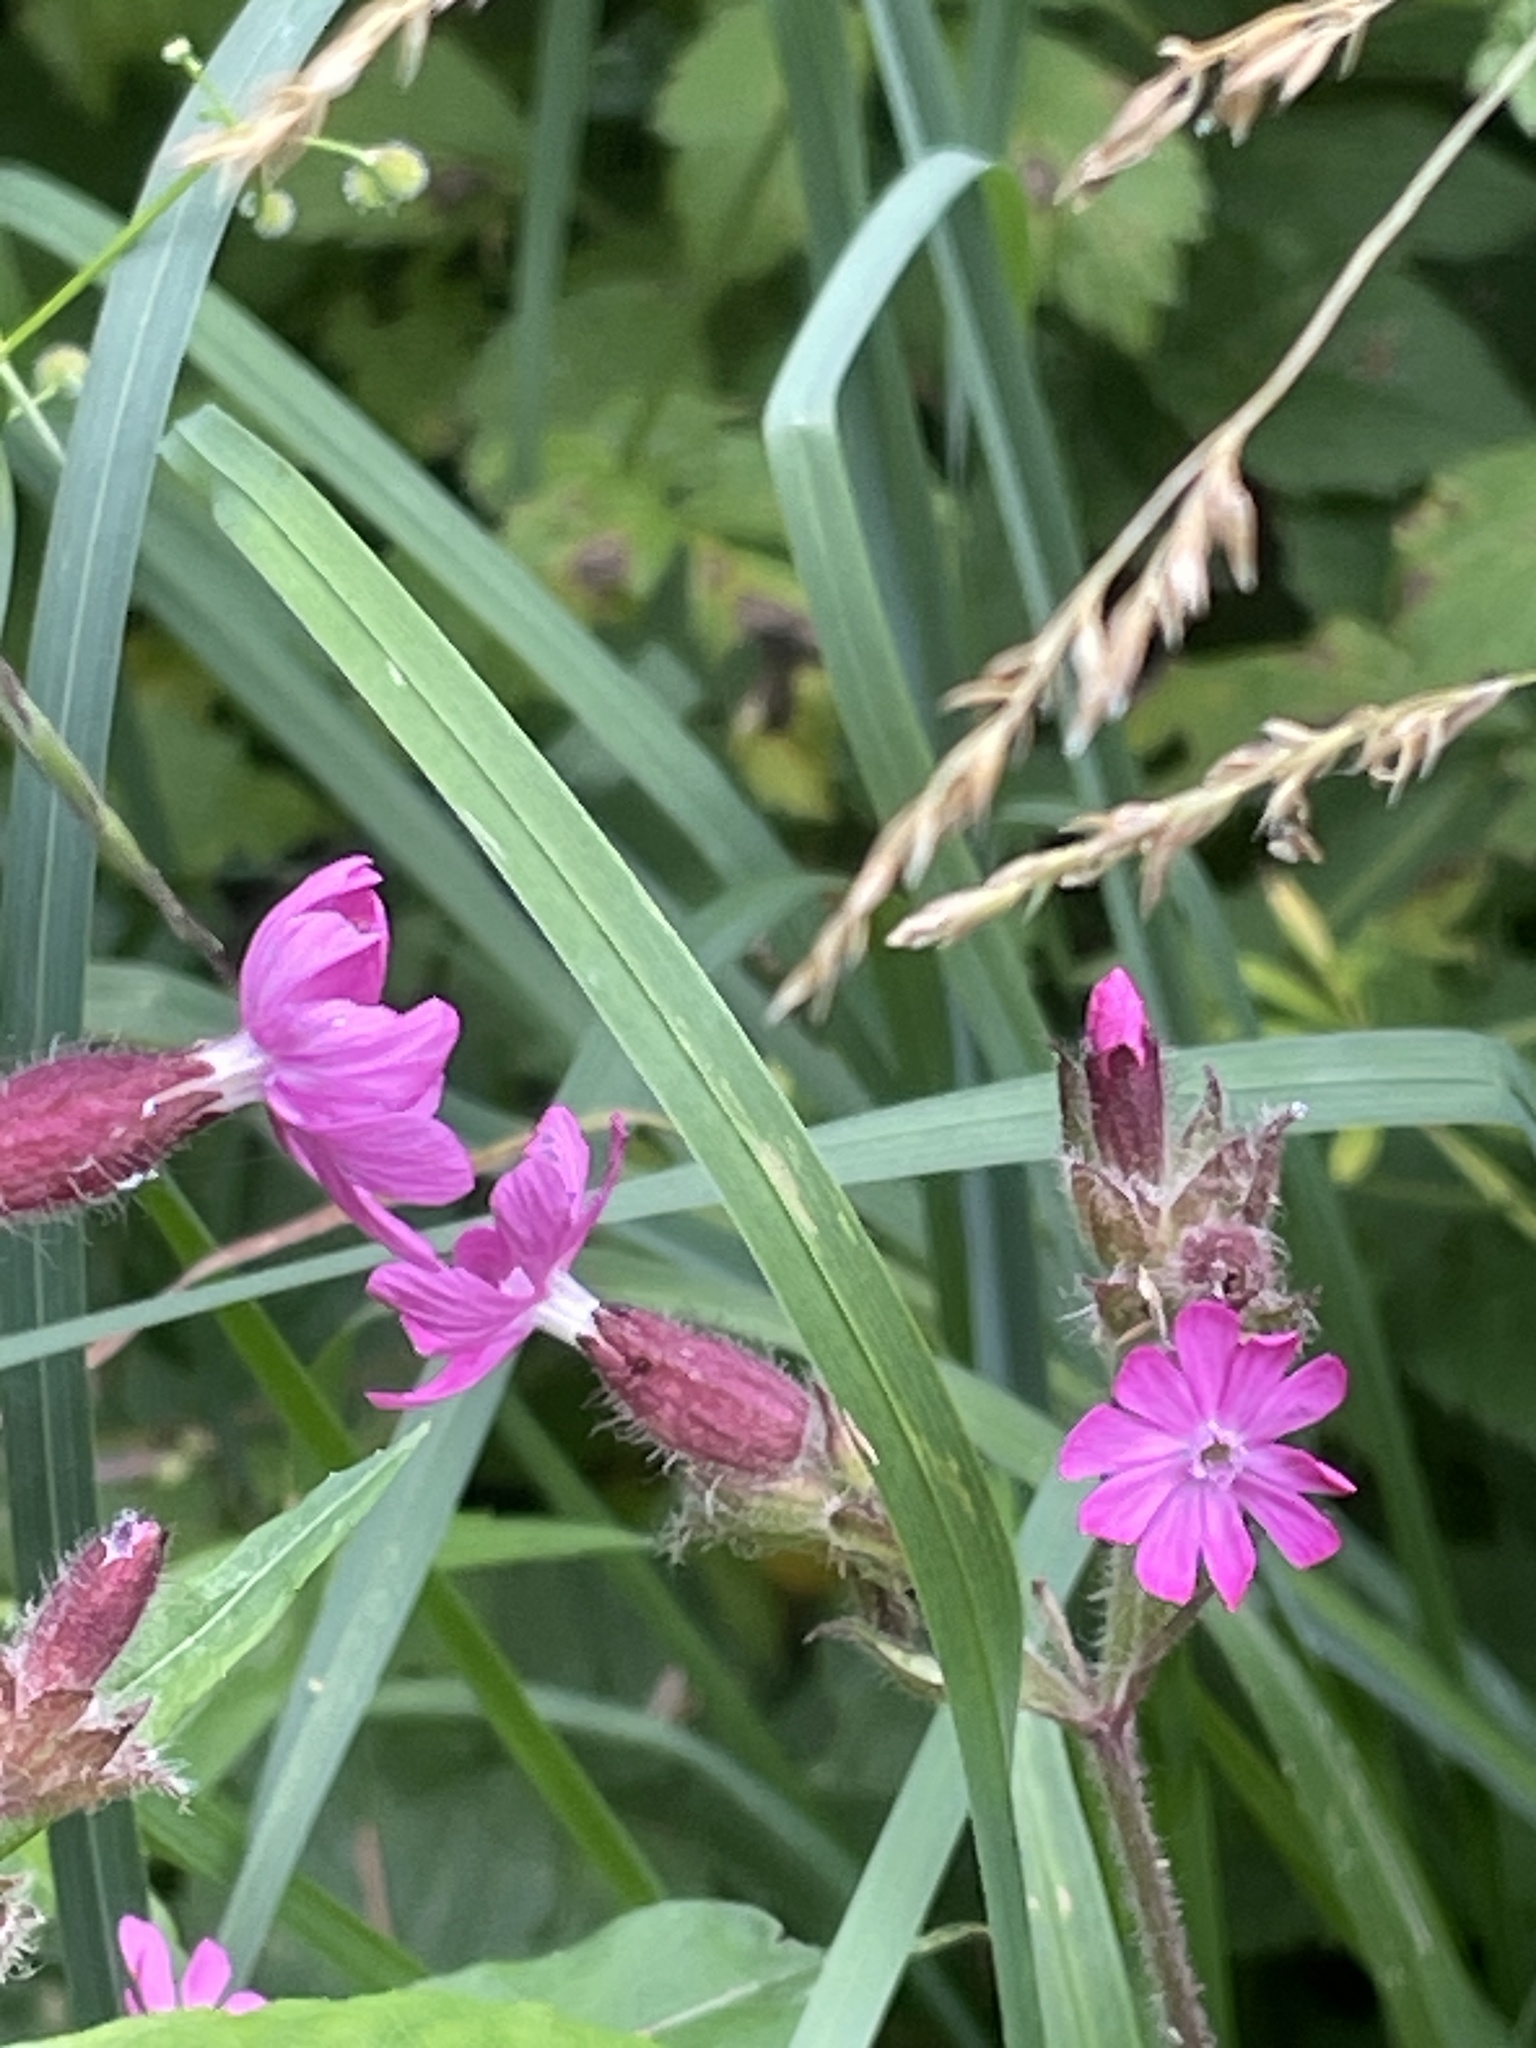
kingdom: Plantae
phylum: Tracheophyta
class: Magnoliopsida
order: Caryophyllales
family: Caryophyllaceae
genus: Silene
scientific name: Silene dioica
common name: Red campion
